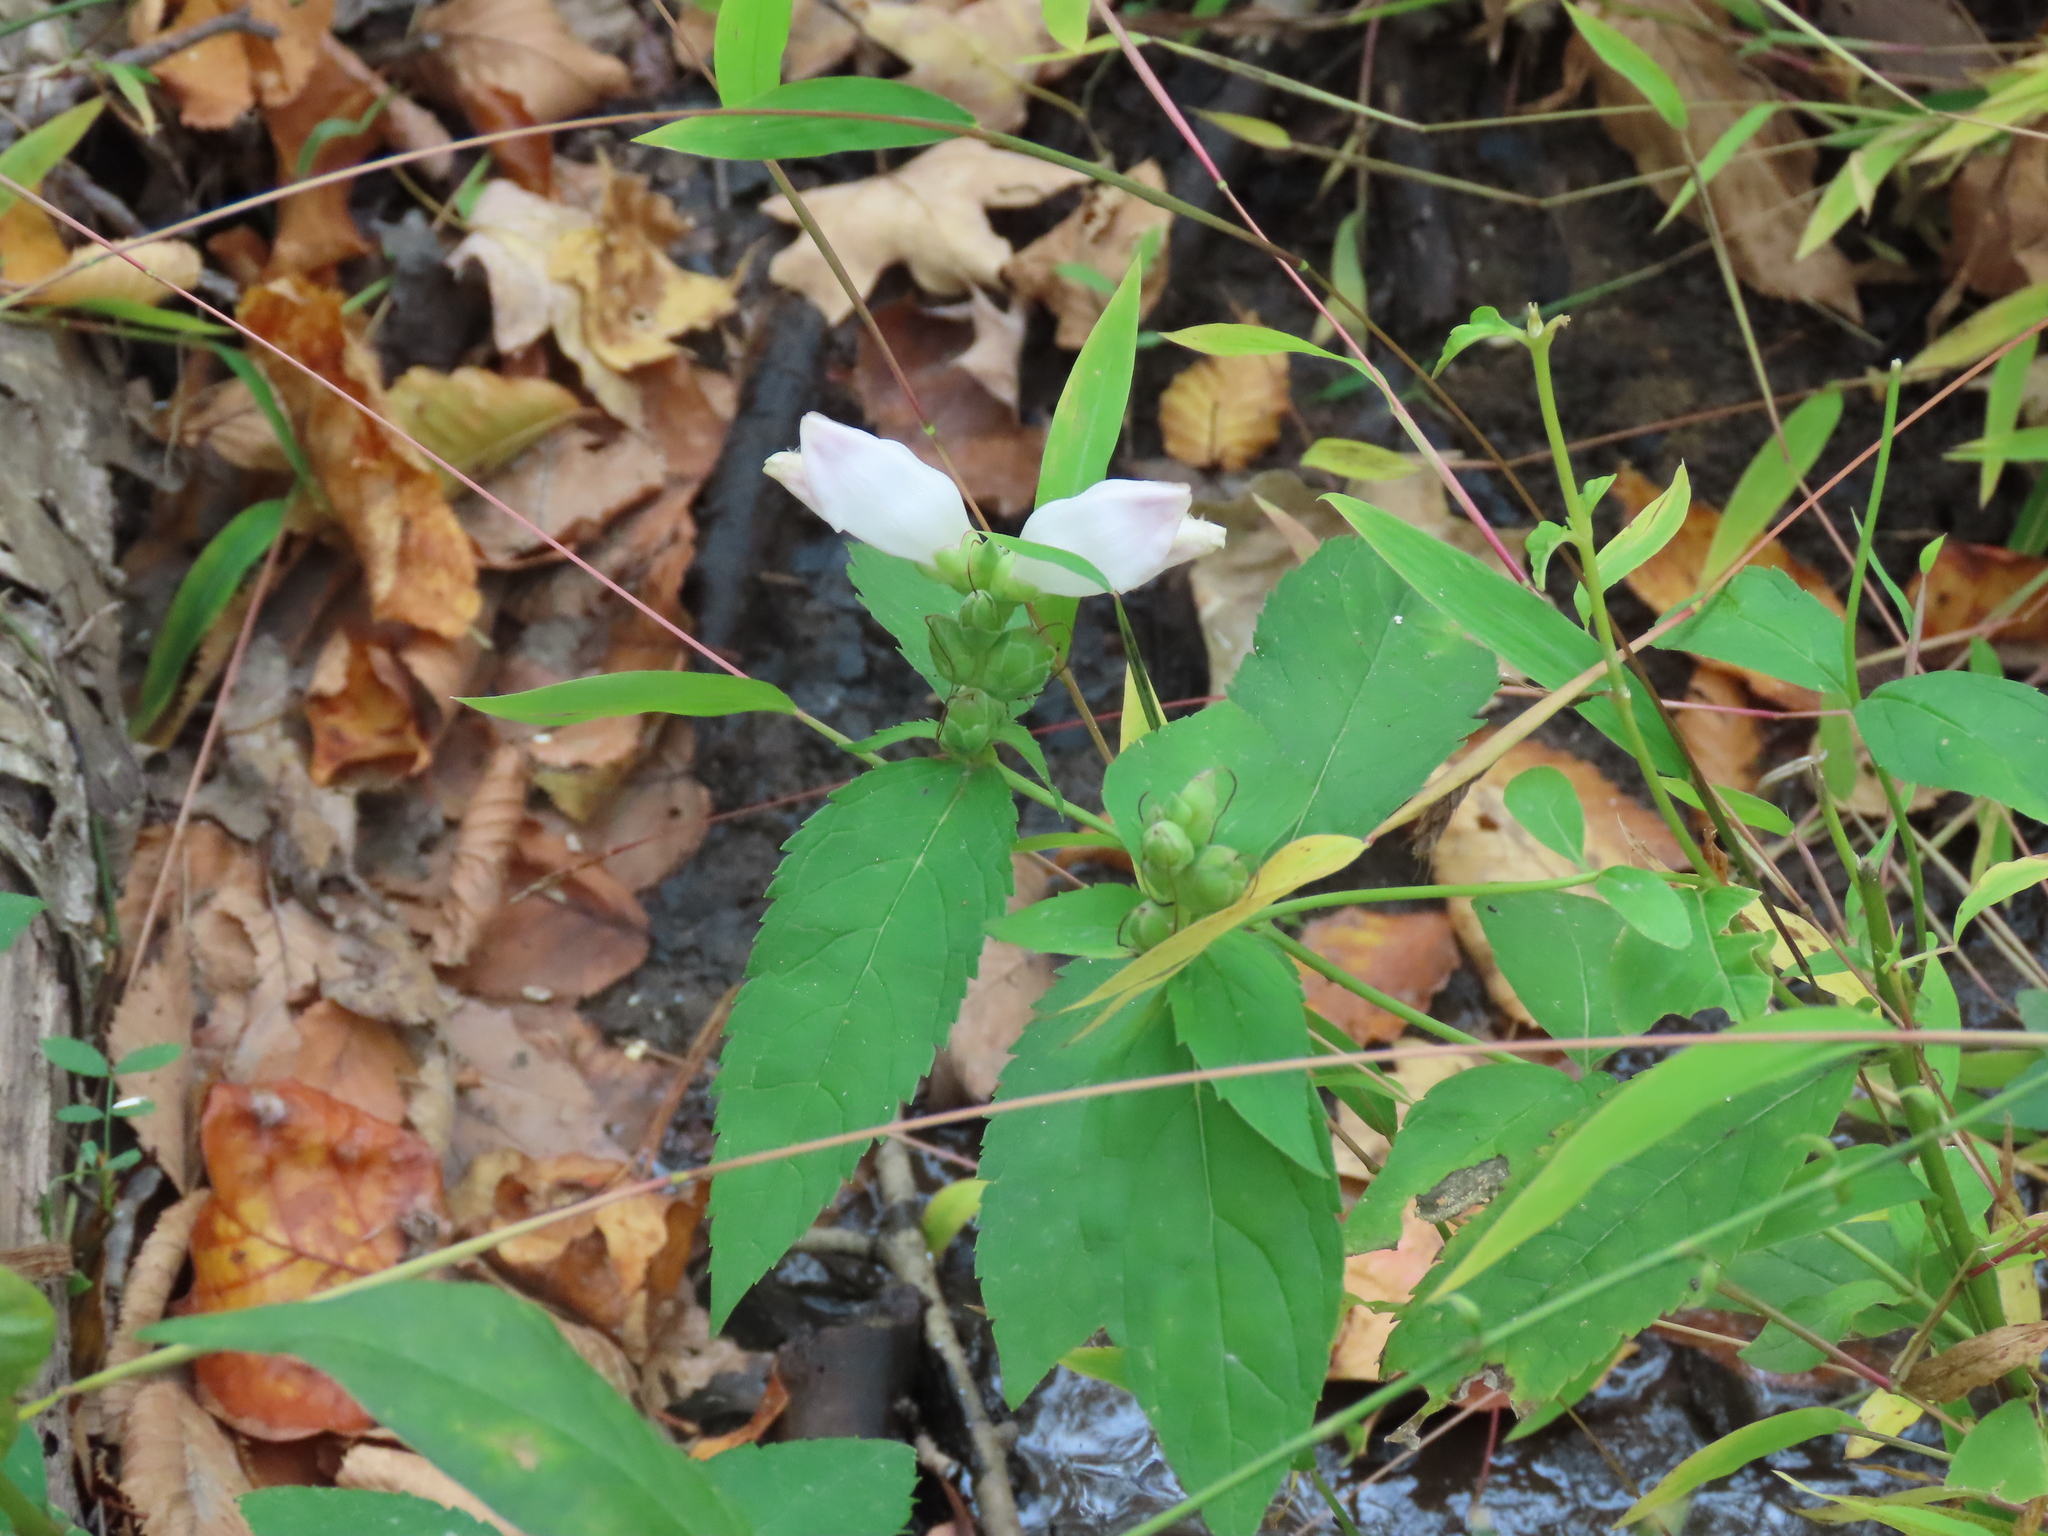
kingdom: Plantae
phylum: Tracheophyta
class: Magnoliopsida
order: Lamiales
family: Plantaginaceae
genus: Chelone
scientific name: Chelone glabra
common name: Snakehead
